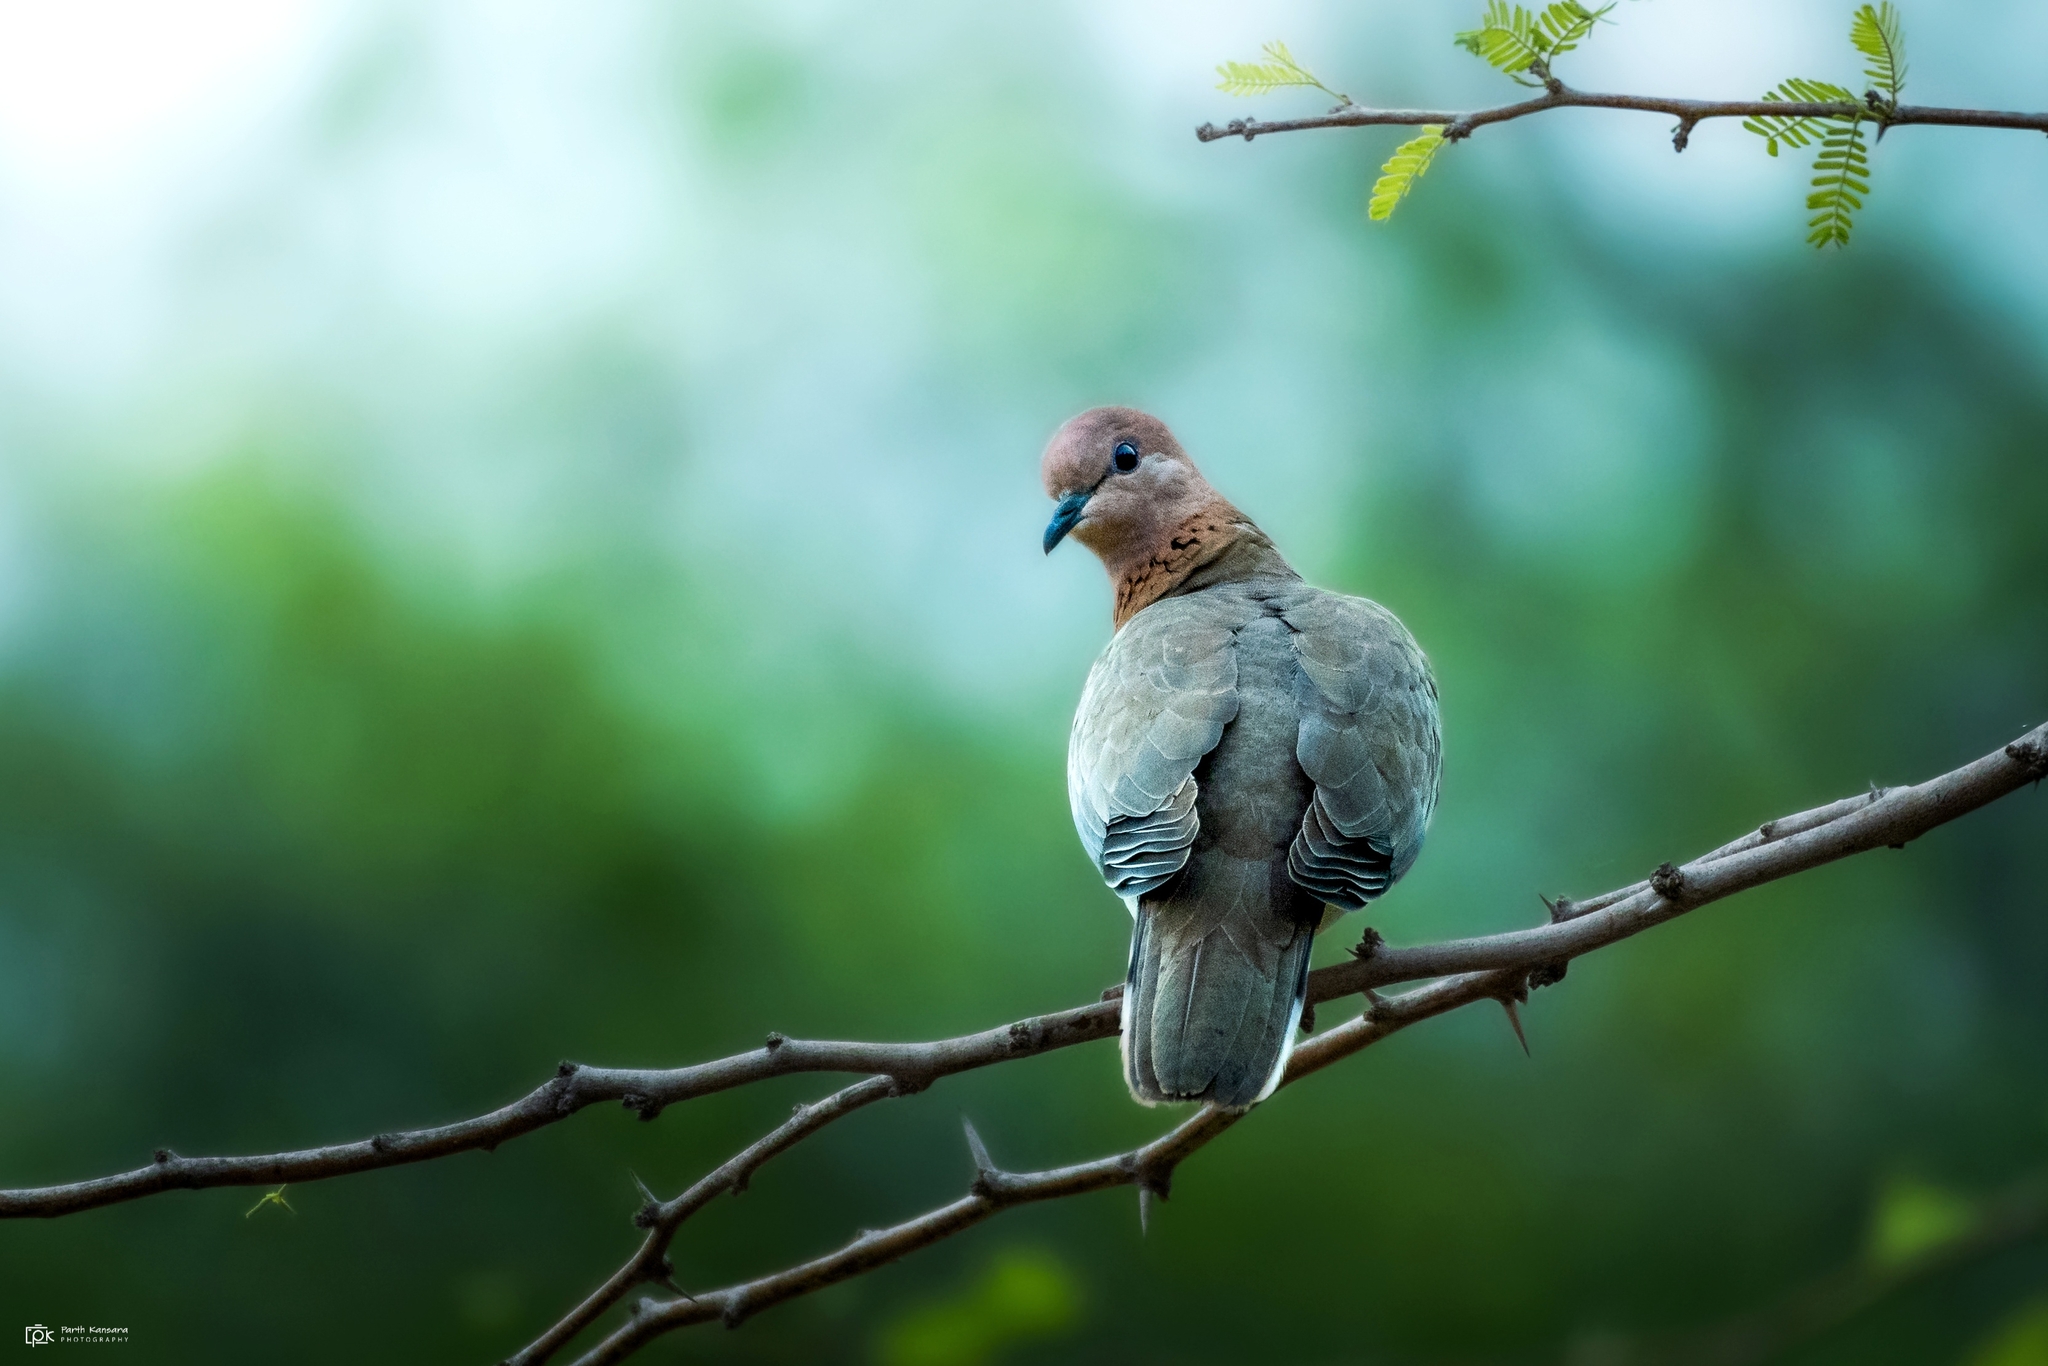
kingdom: Animalia
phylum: Chordata
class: Aves
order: Columbiformes
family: Columbidae
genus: Spilopelia
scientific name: Spilopelia senegalensis
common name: Laughing dove
